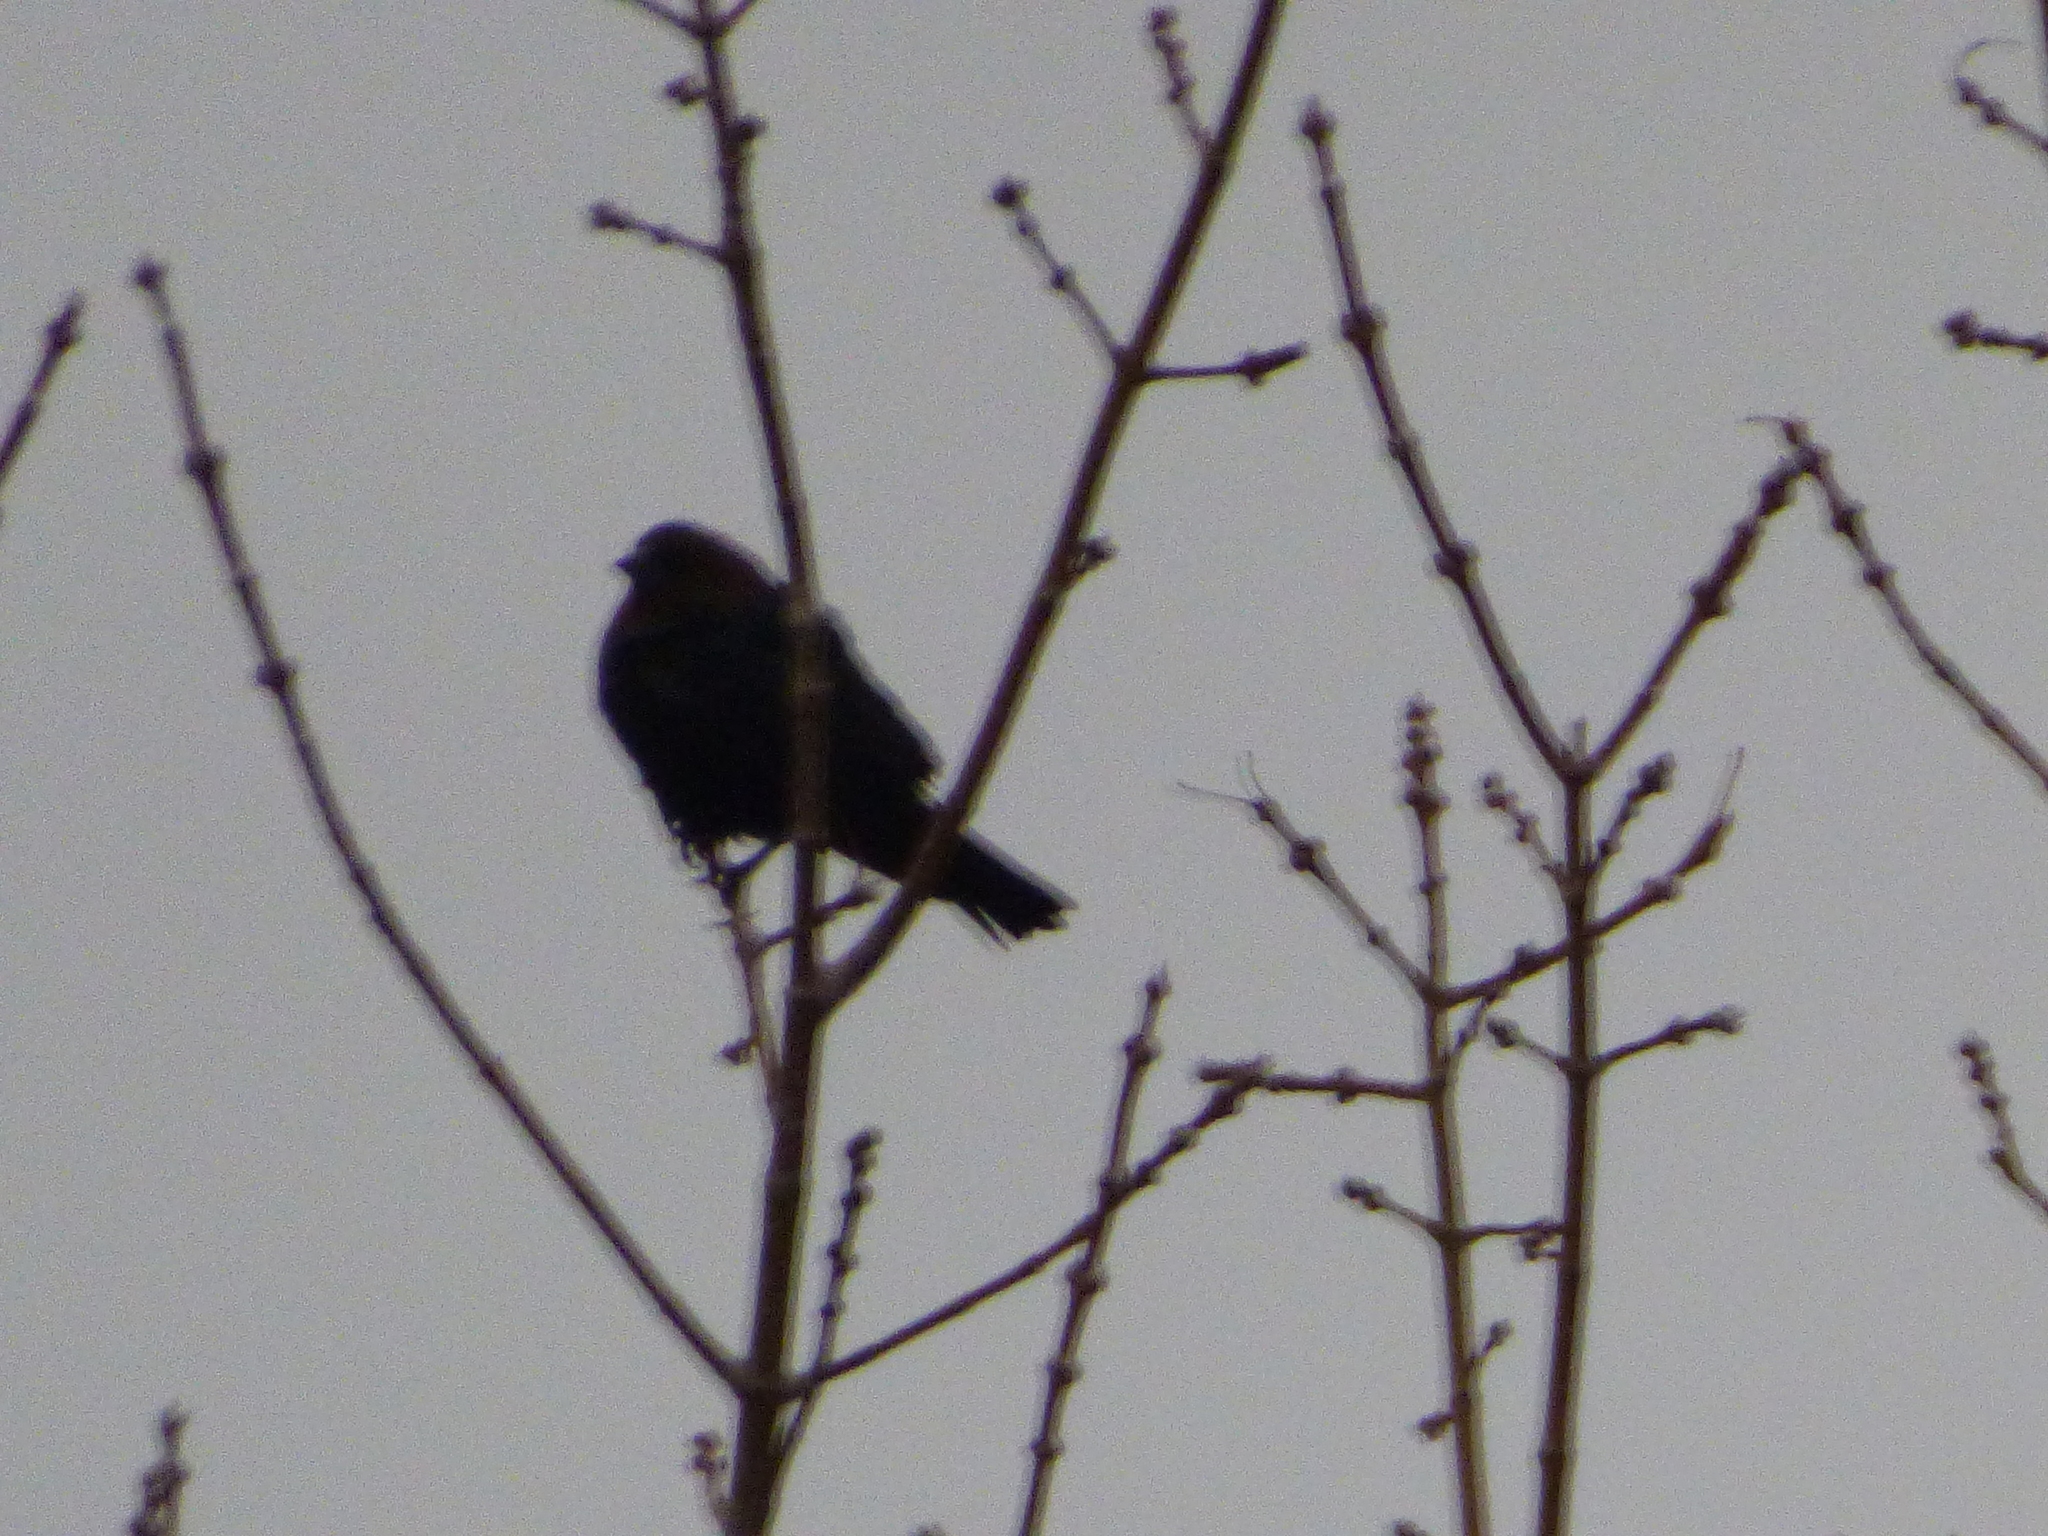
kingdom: Animalia
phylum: Chordata
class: Aves
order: Passeriformes
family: Icteridae
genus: Molothrus
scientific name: Molothrus ater
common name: Brown-headed cowbird
